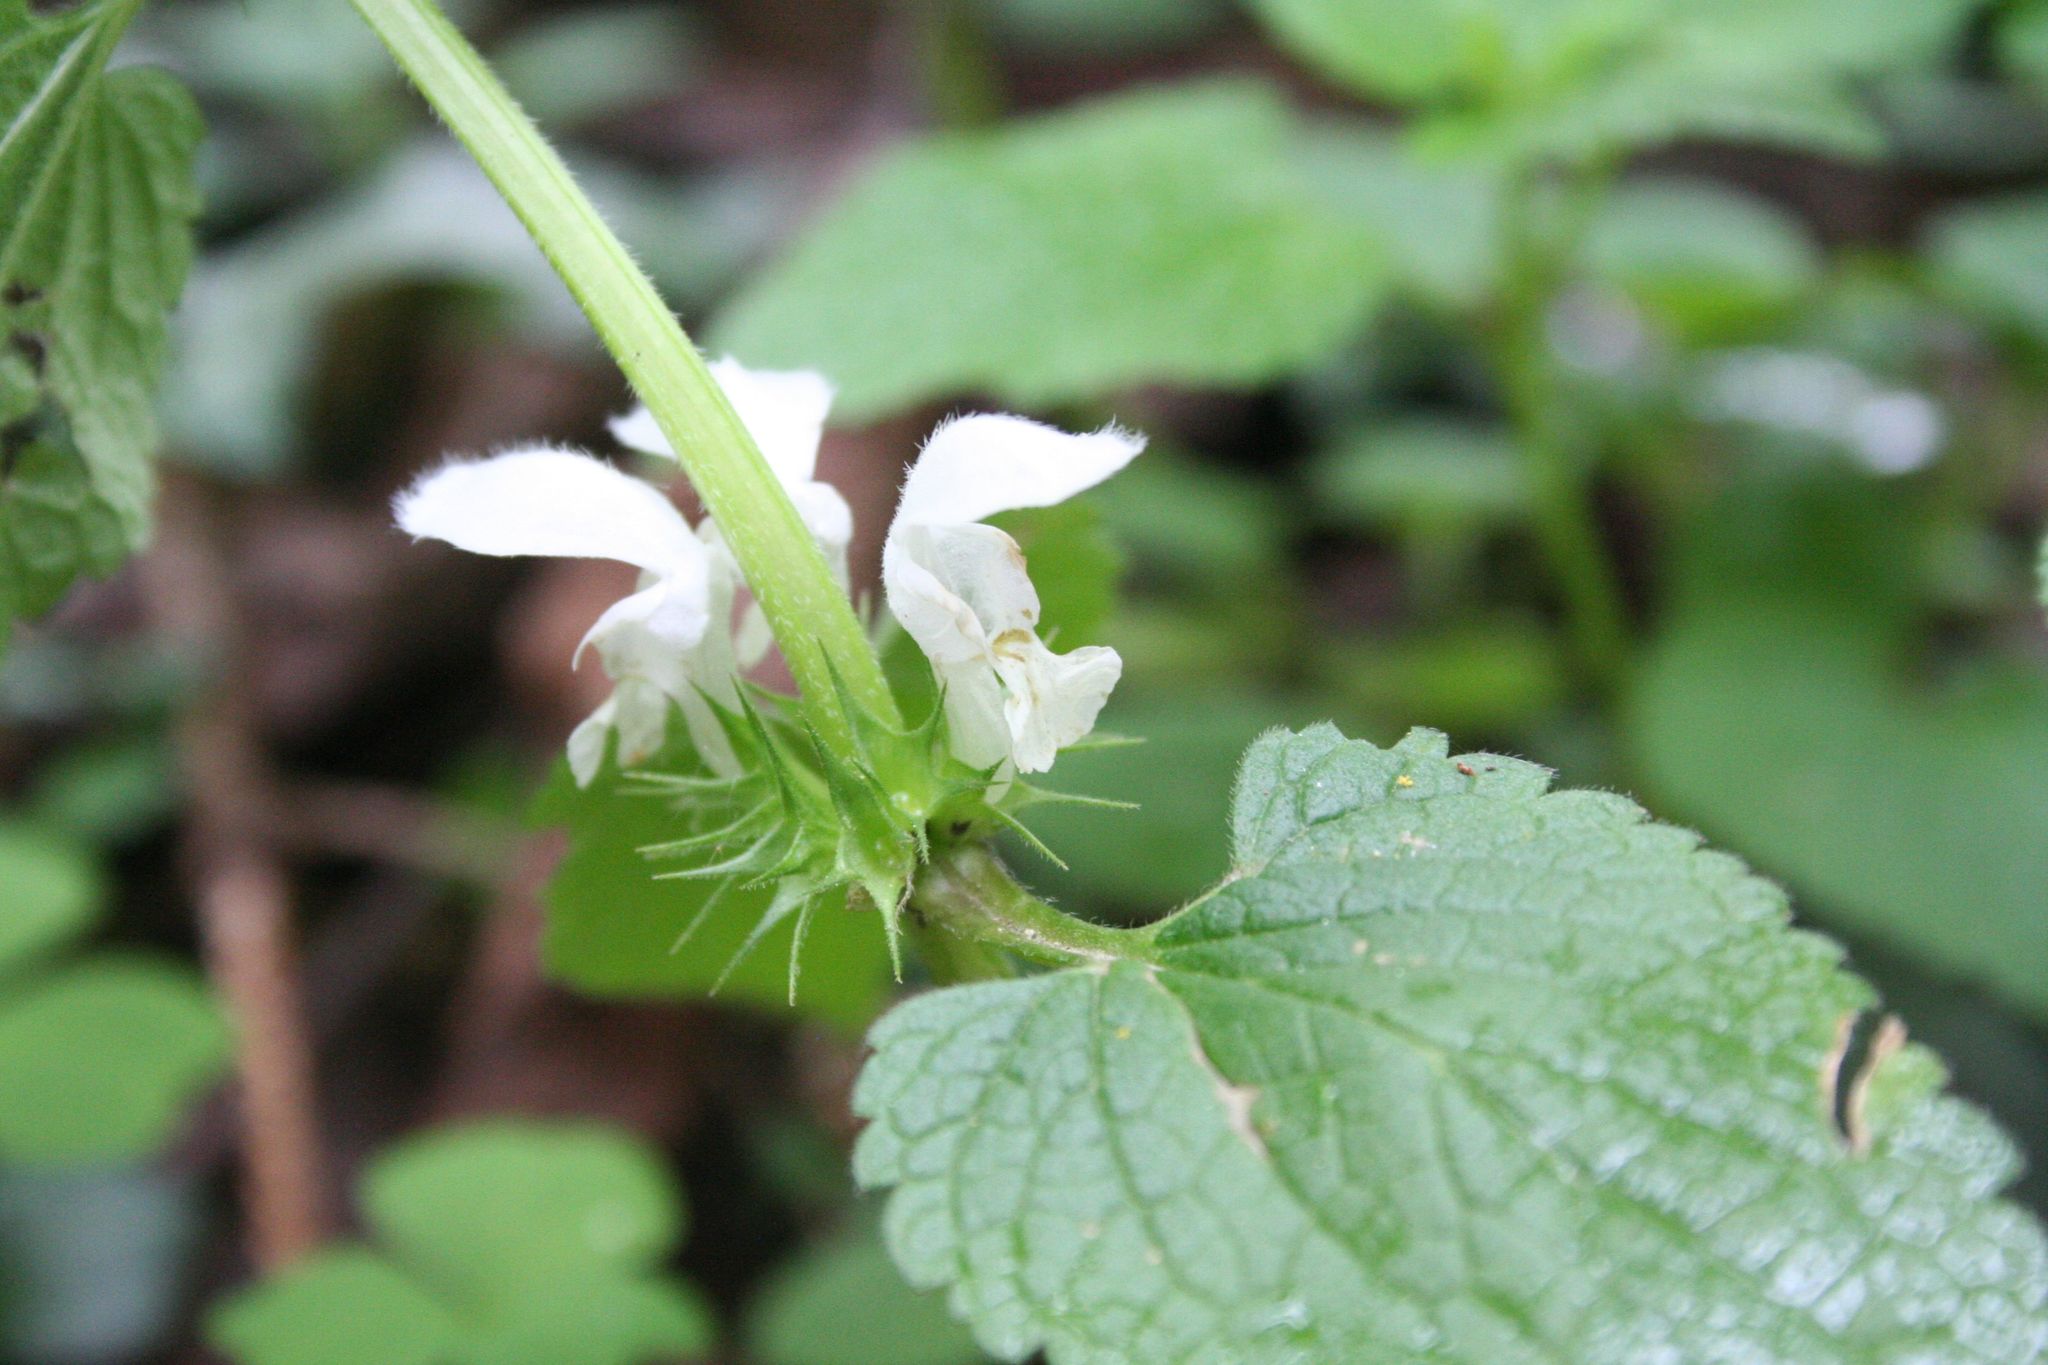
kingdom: Plantae
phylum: Tracheophyta
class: Magnoliopsida
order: Lamiales
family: Lamiaceae
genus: Lamium
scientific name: Lamium album
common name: White dead-nettle
